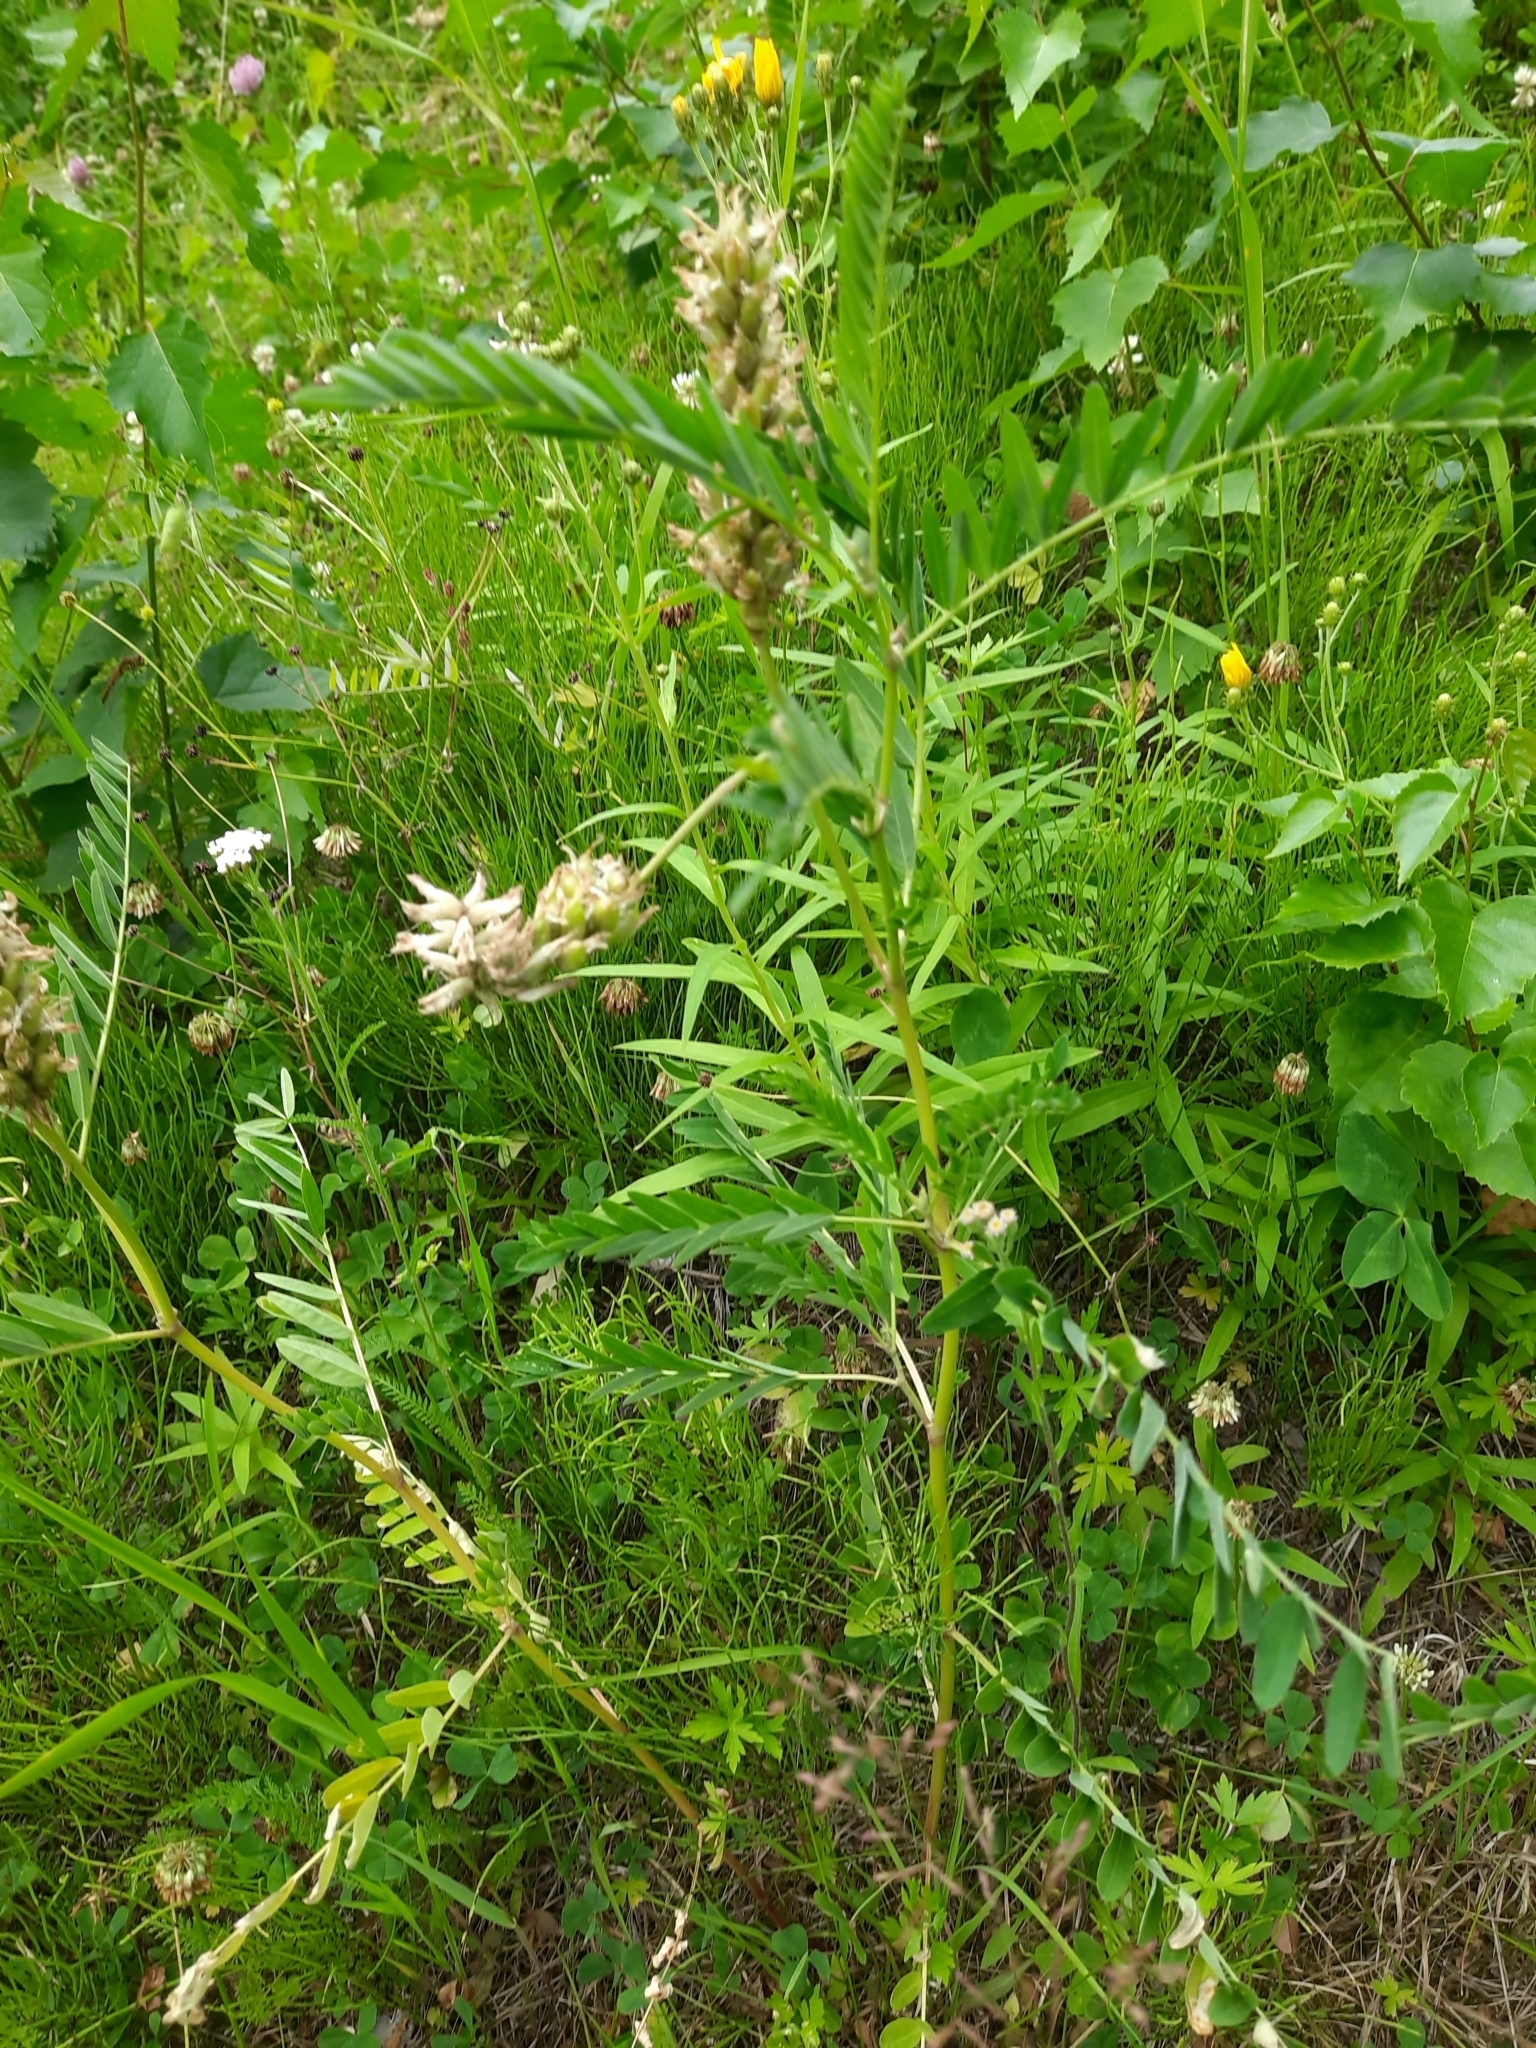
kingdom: Plantae
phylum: Tracheophyta
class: Magnoliopsida
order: Fabales
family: Fabaceae
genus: Astragalus
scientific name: Astragalus uliginosus
